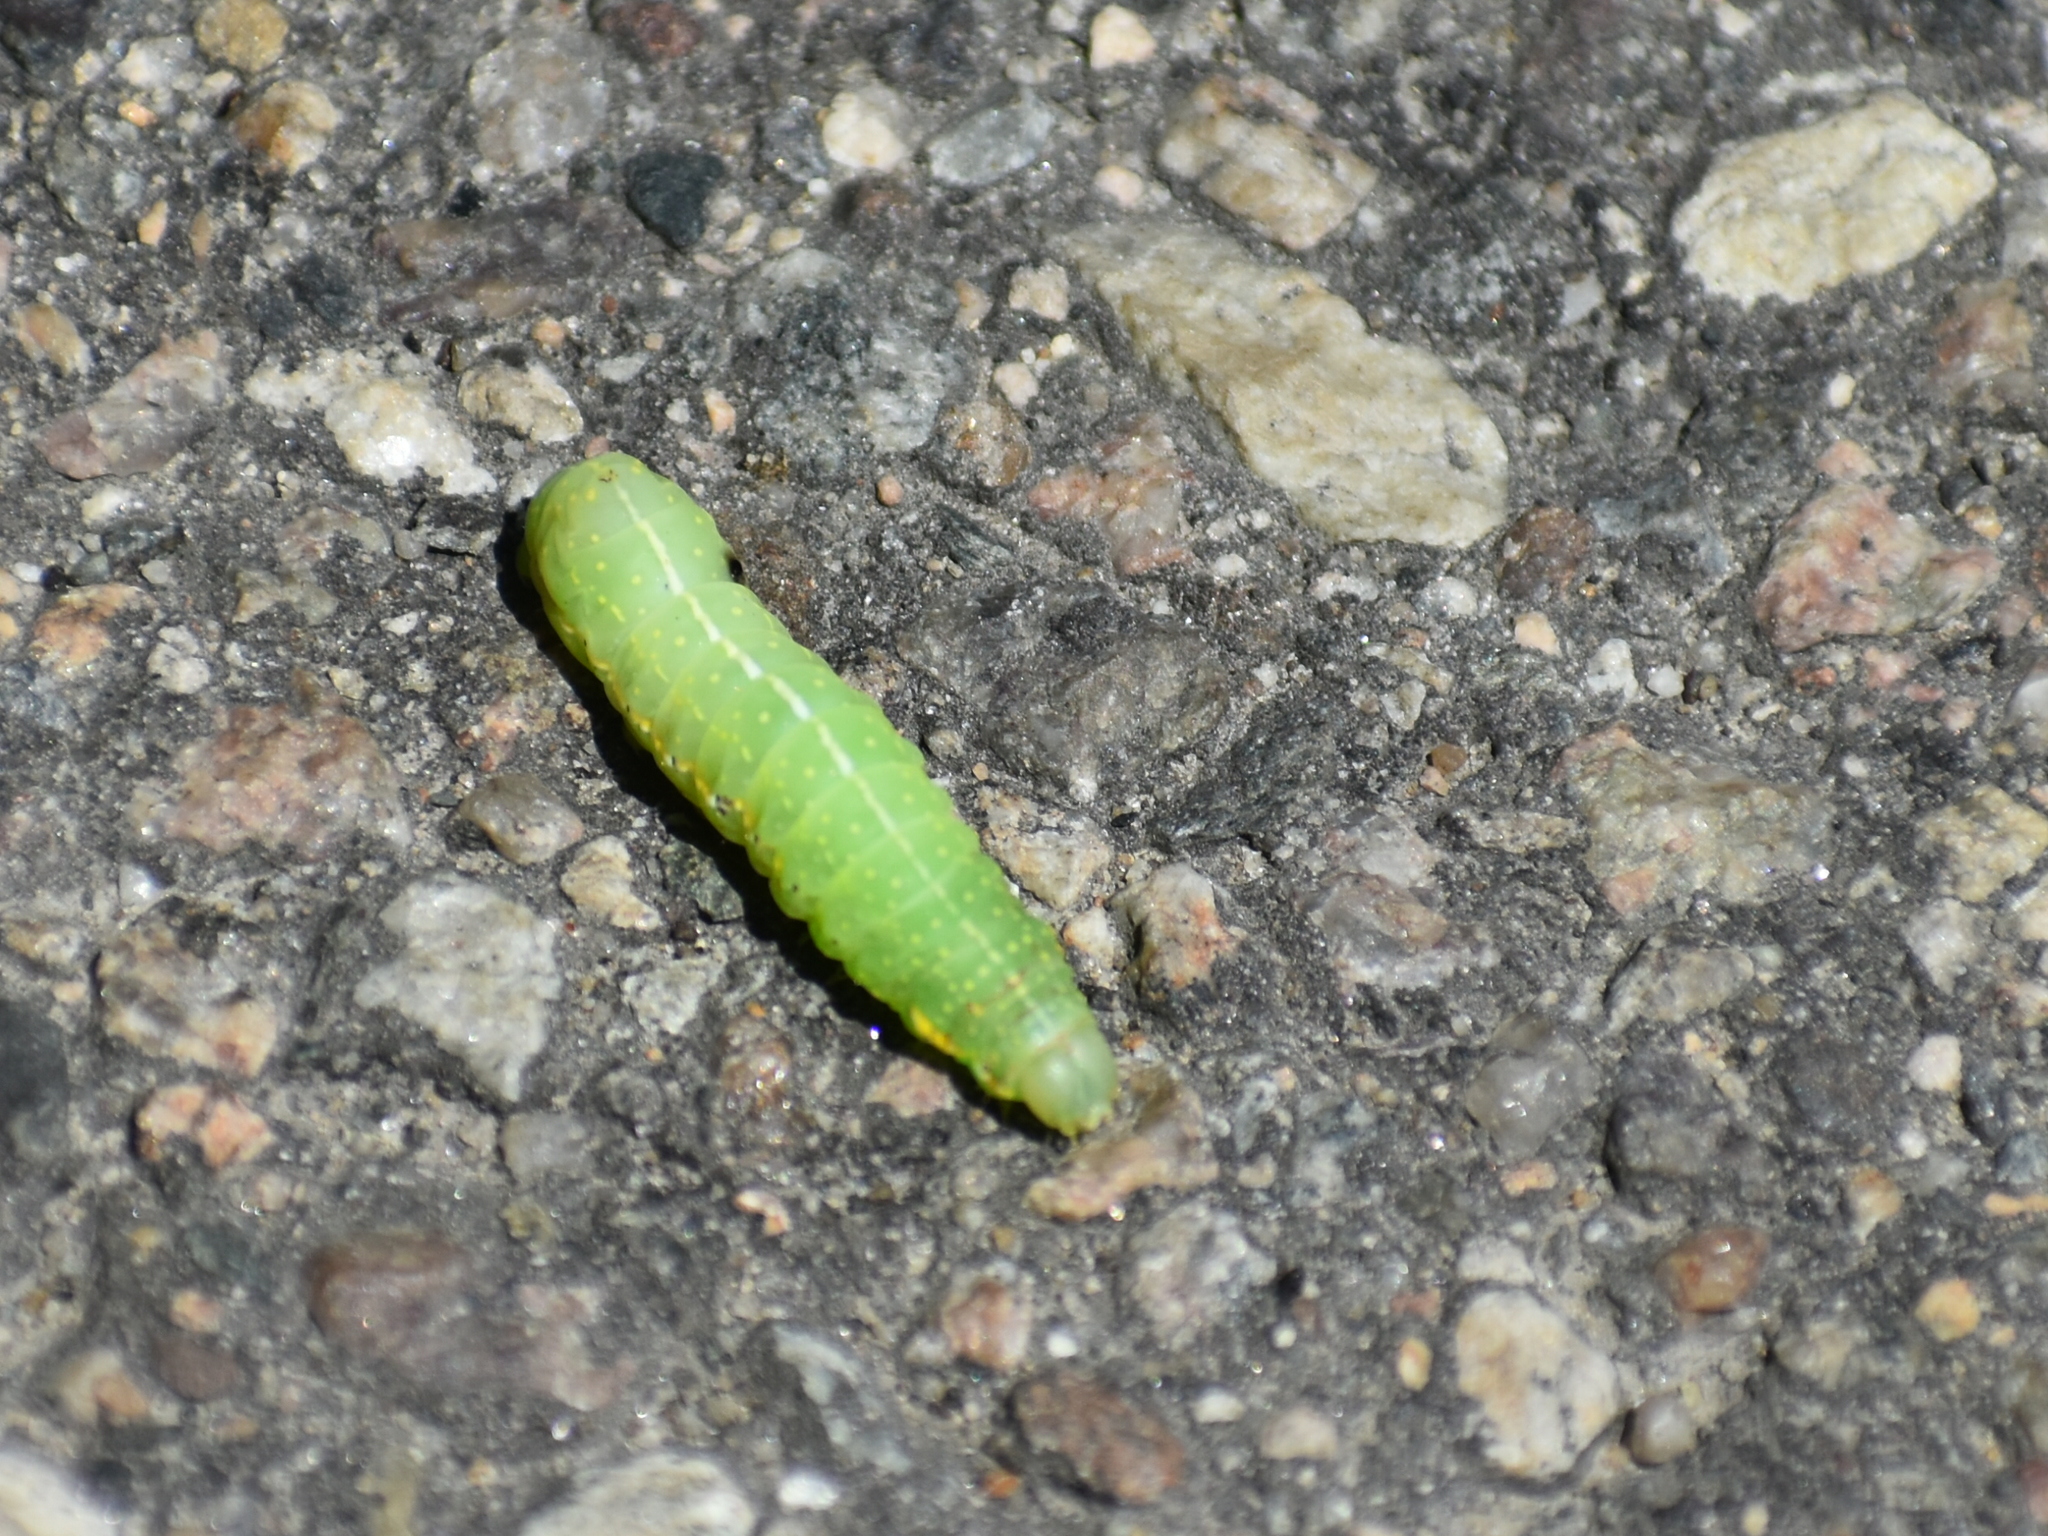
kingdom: Animalia
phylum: Arthropoda
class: Insecta
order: Lepidoptera
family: Noctuidae
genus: Amphipyra
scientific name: Amphipyra pyramidoides
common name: American copper underwing
